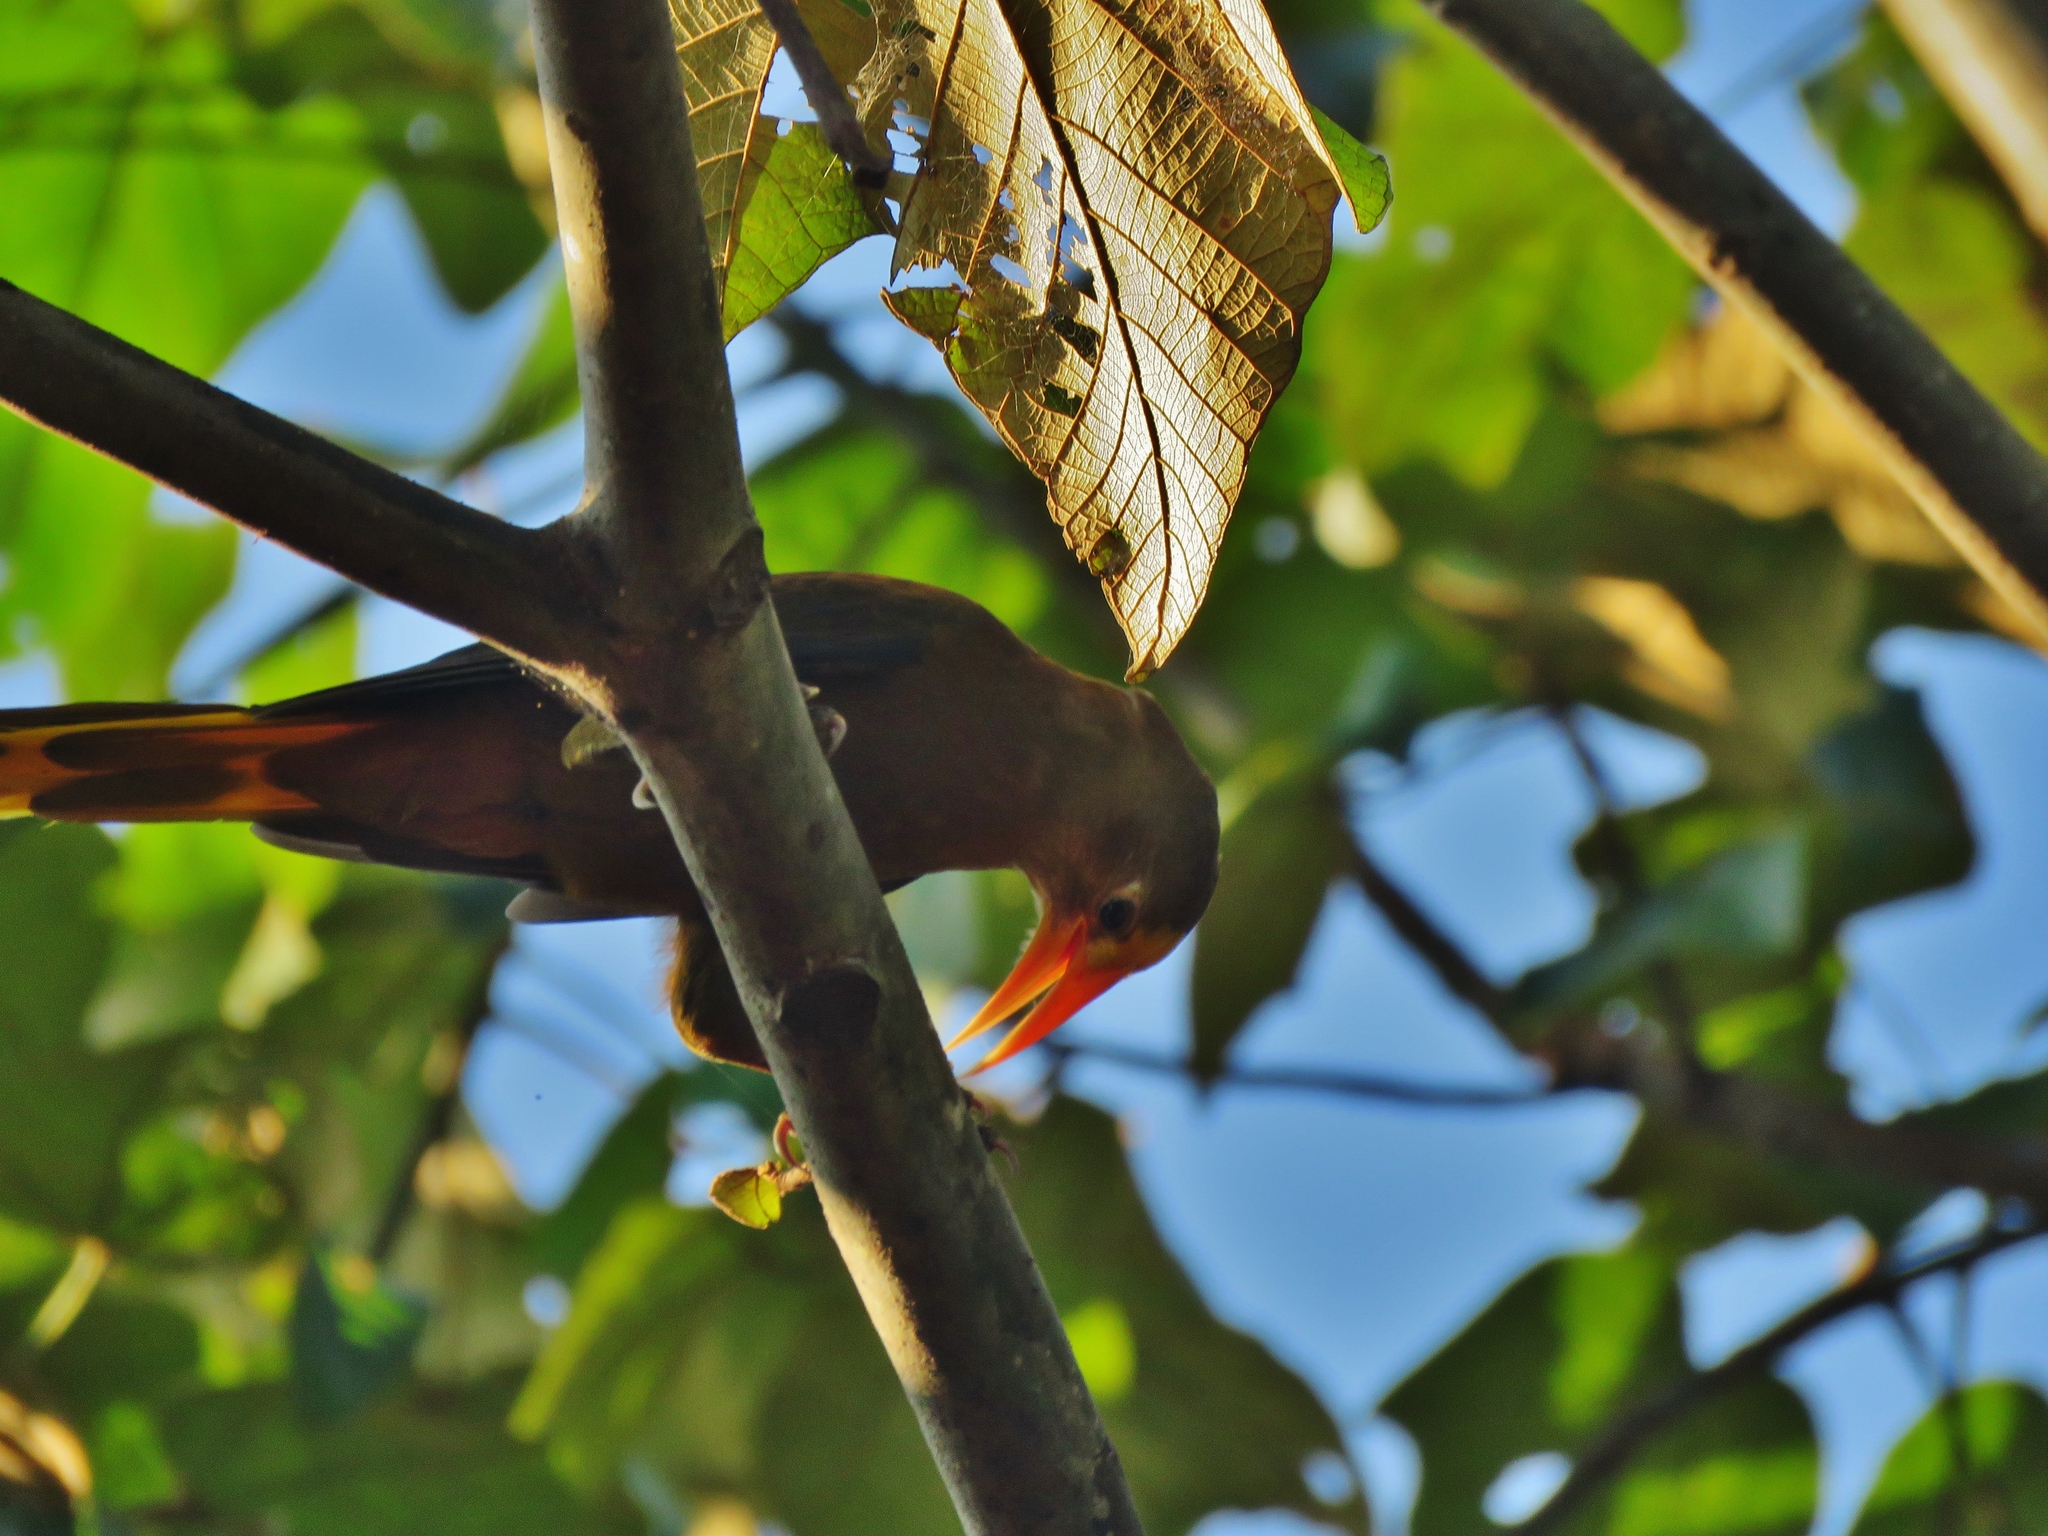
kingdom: Animalia
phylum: Chordata
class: Aves
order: Passeriformes
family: Icteridae
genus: Psarocolius
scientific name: Psarocolius angustifrons
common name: Russet-backed oropendola
